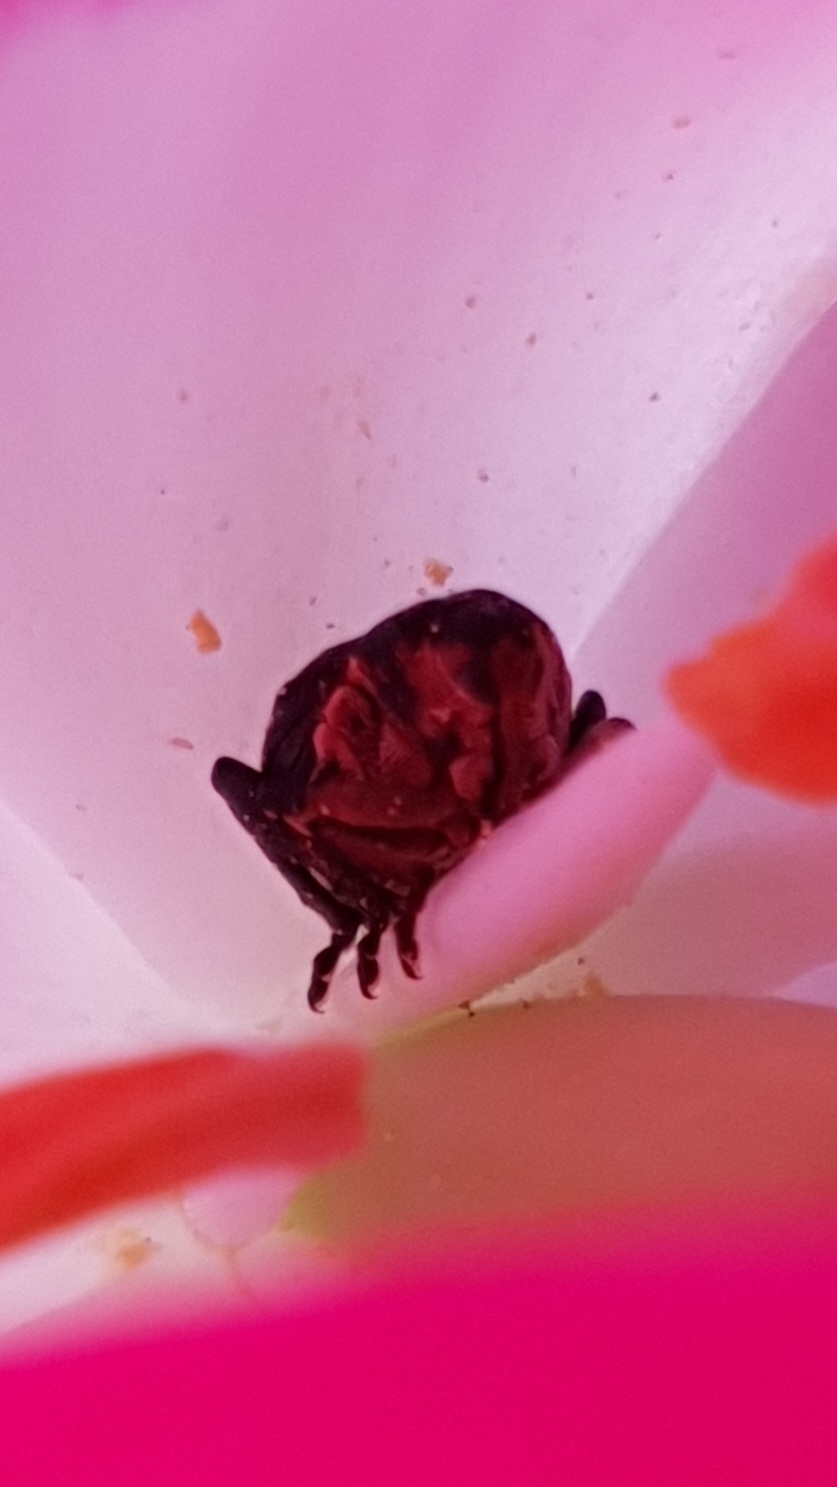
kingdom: Animalia
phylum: Arthropoda
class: Insecta
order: Coleoptera
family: Curculionidae
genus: Mononychus
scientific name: Mononychus punctumalbum
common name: Iris weevil
